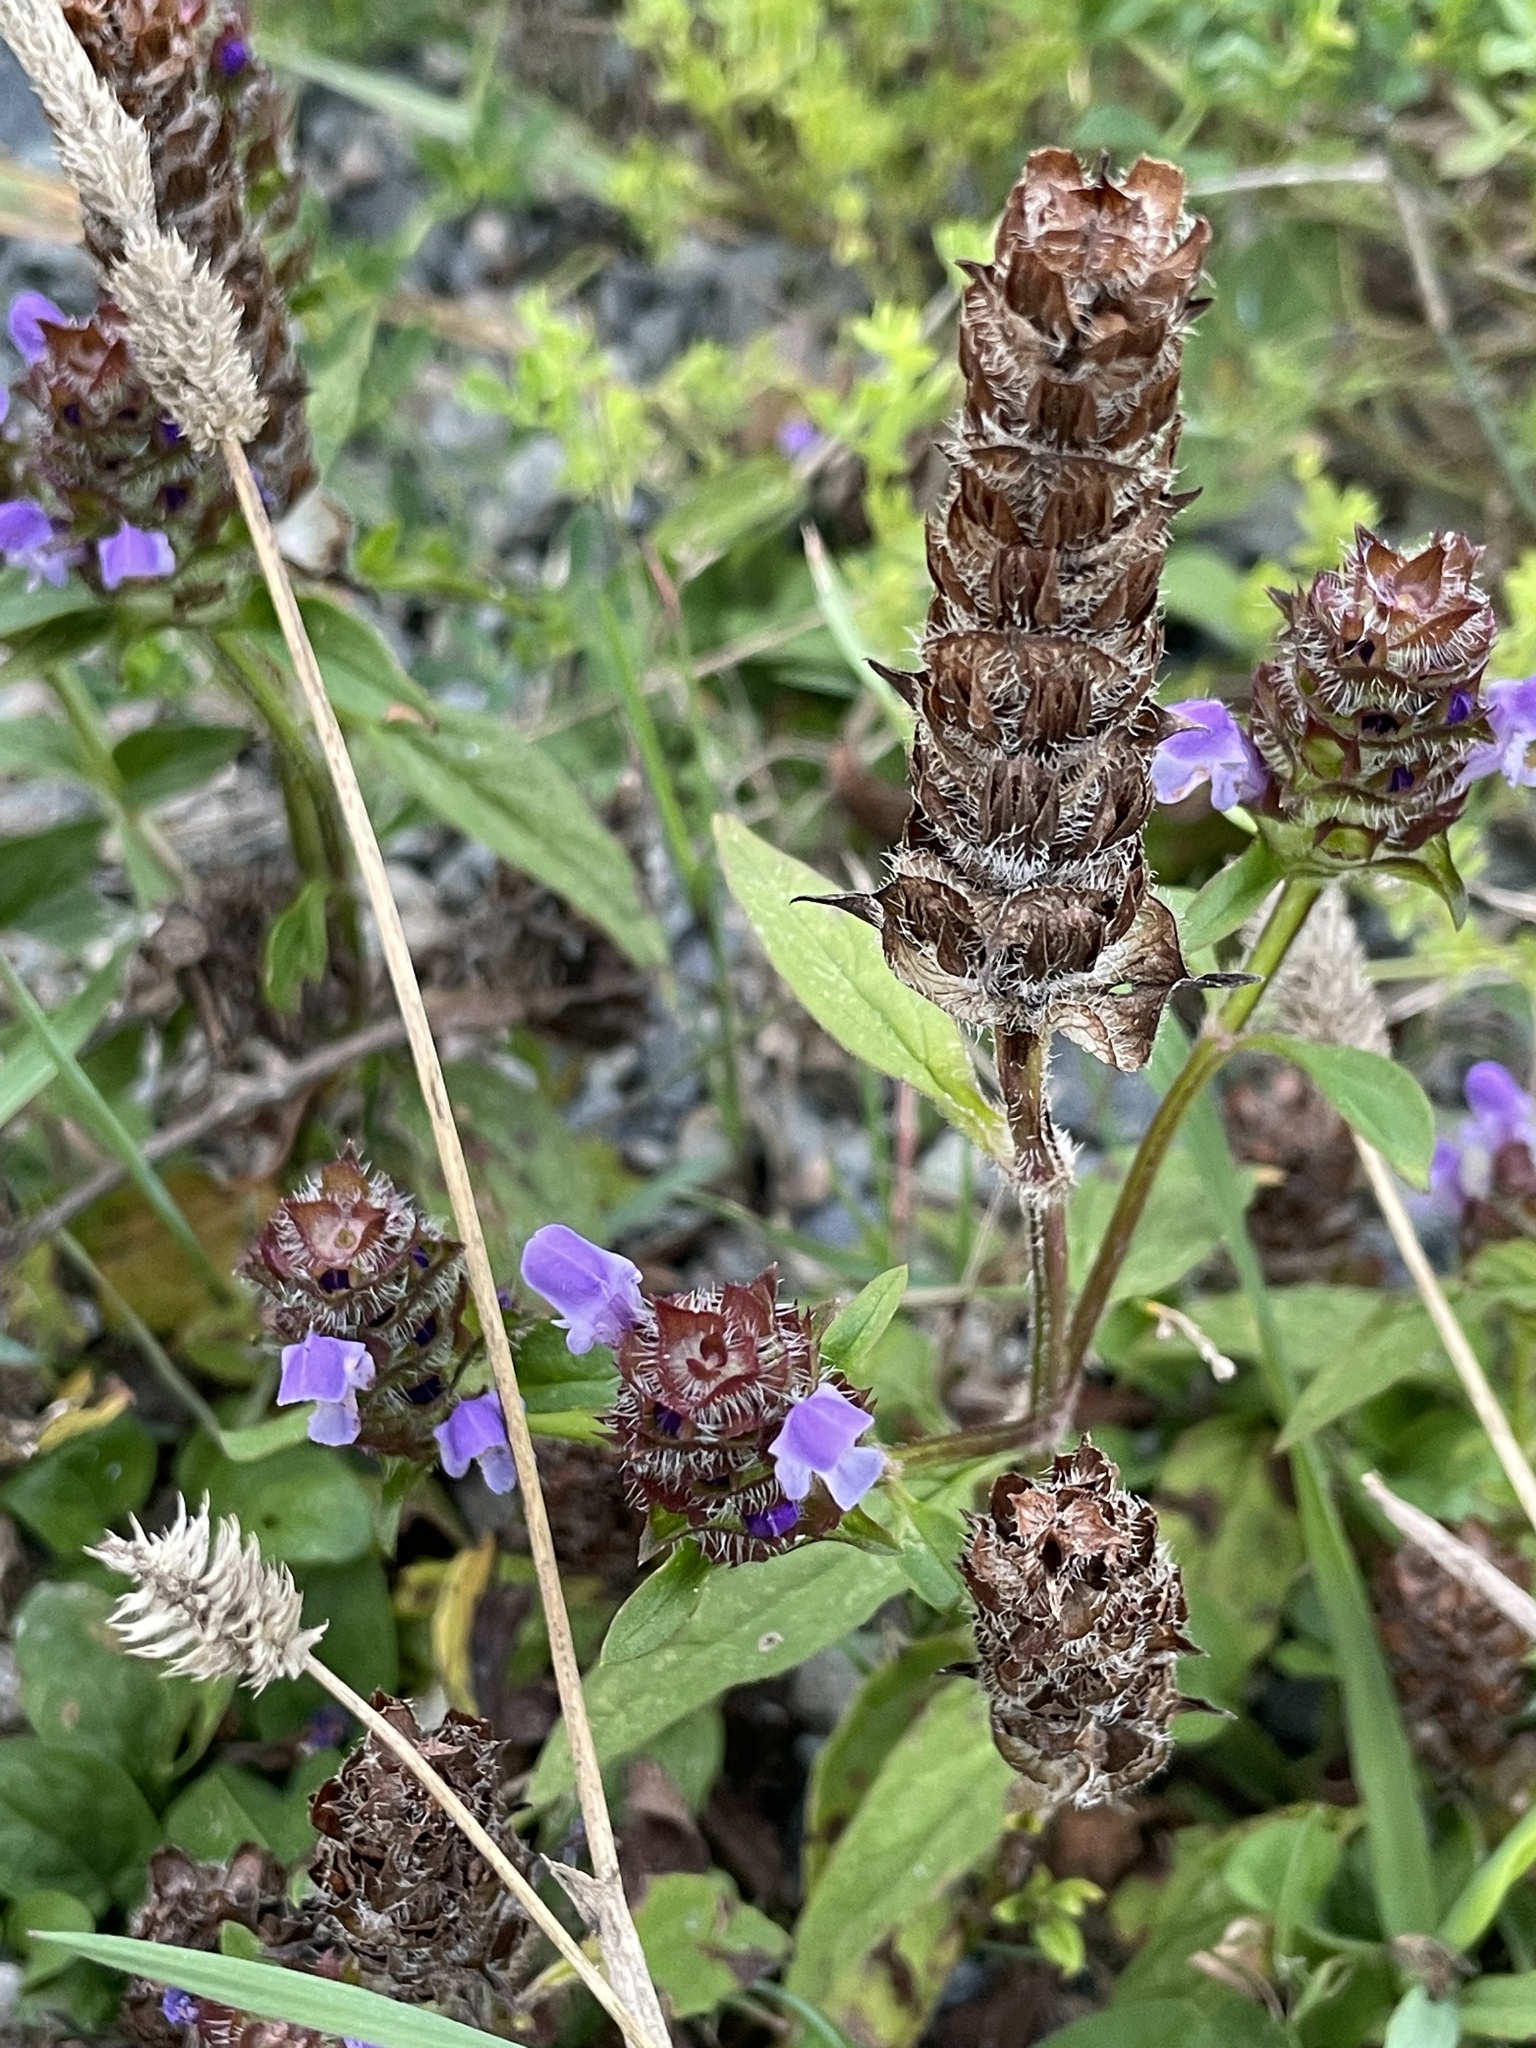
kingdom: Plantae
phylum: Tracheophyta
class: Magnoliopsida
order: Lamiales
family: Lamiaceae
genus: Prunella
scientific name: Prunella vulgaris
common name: Heal-all
